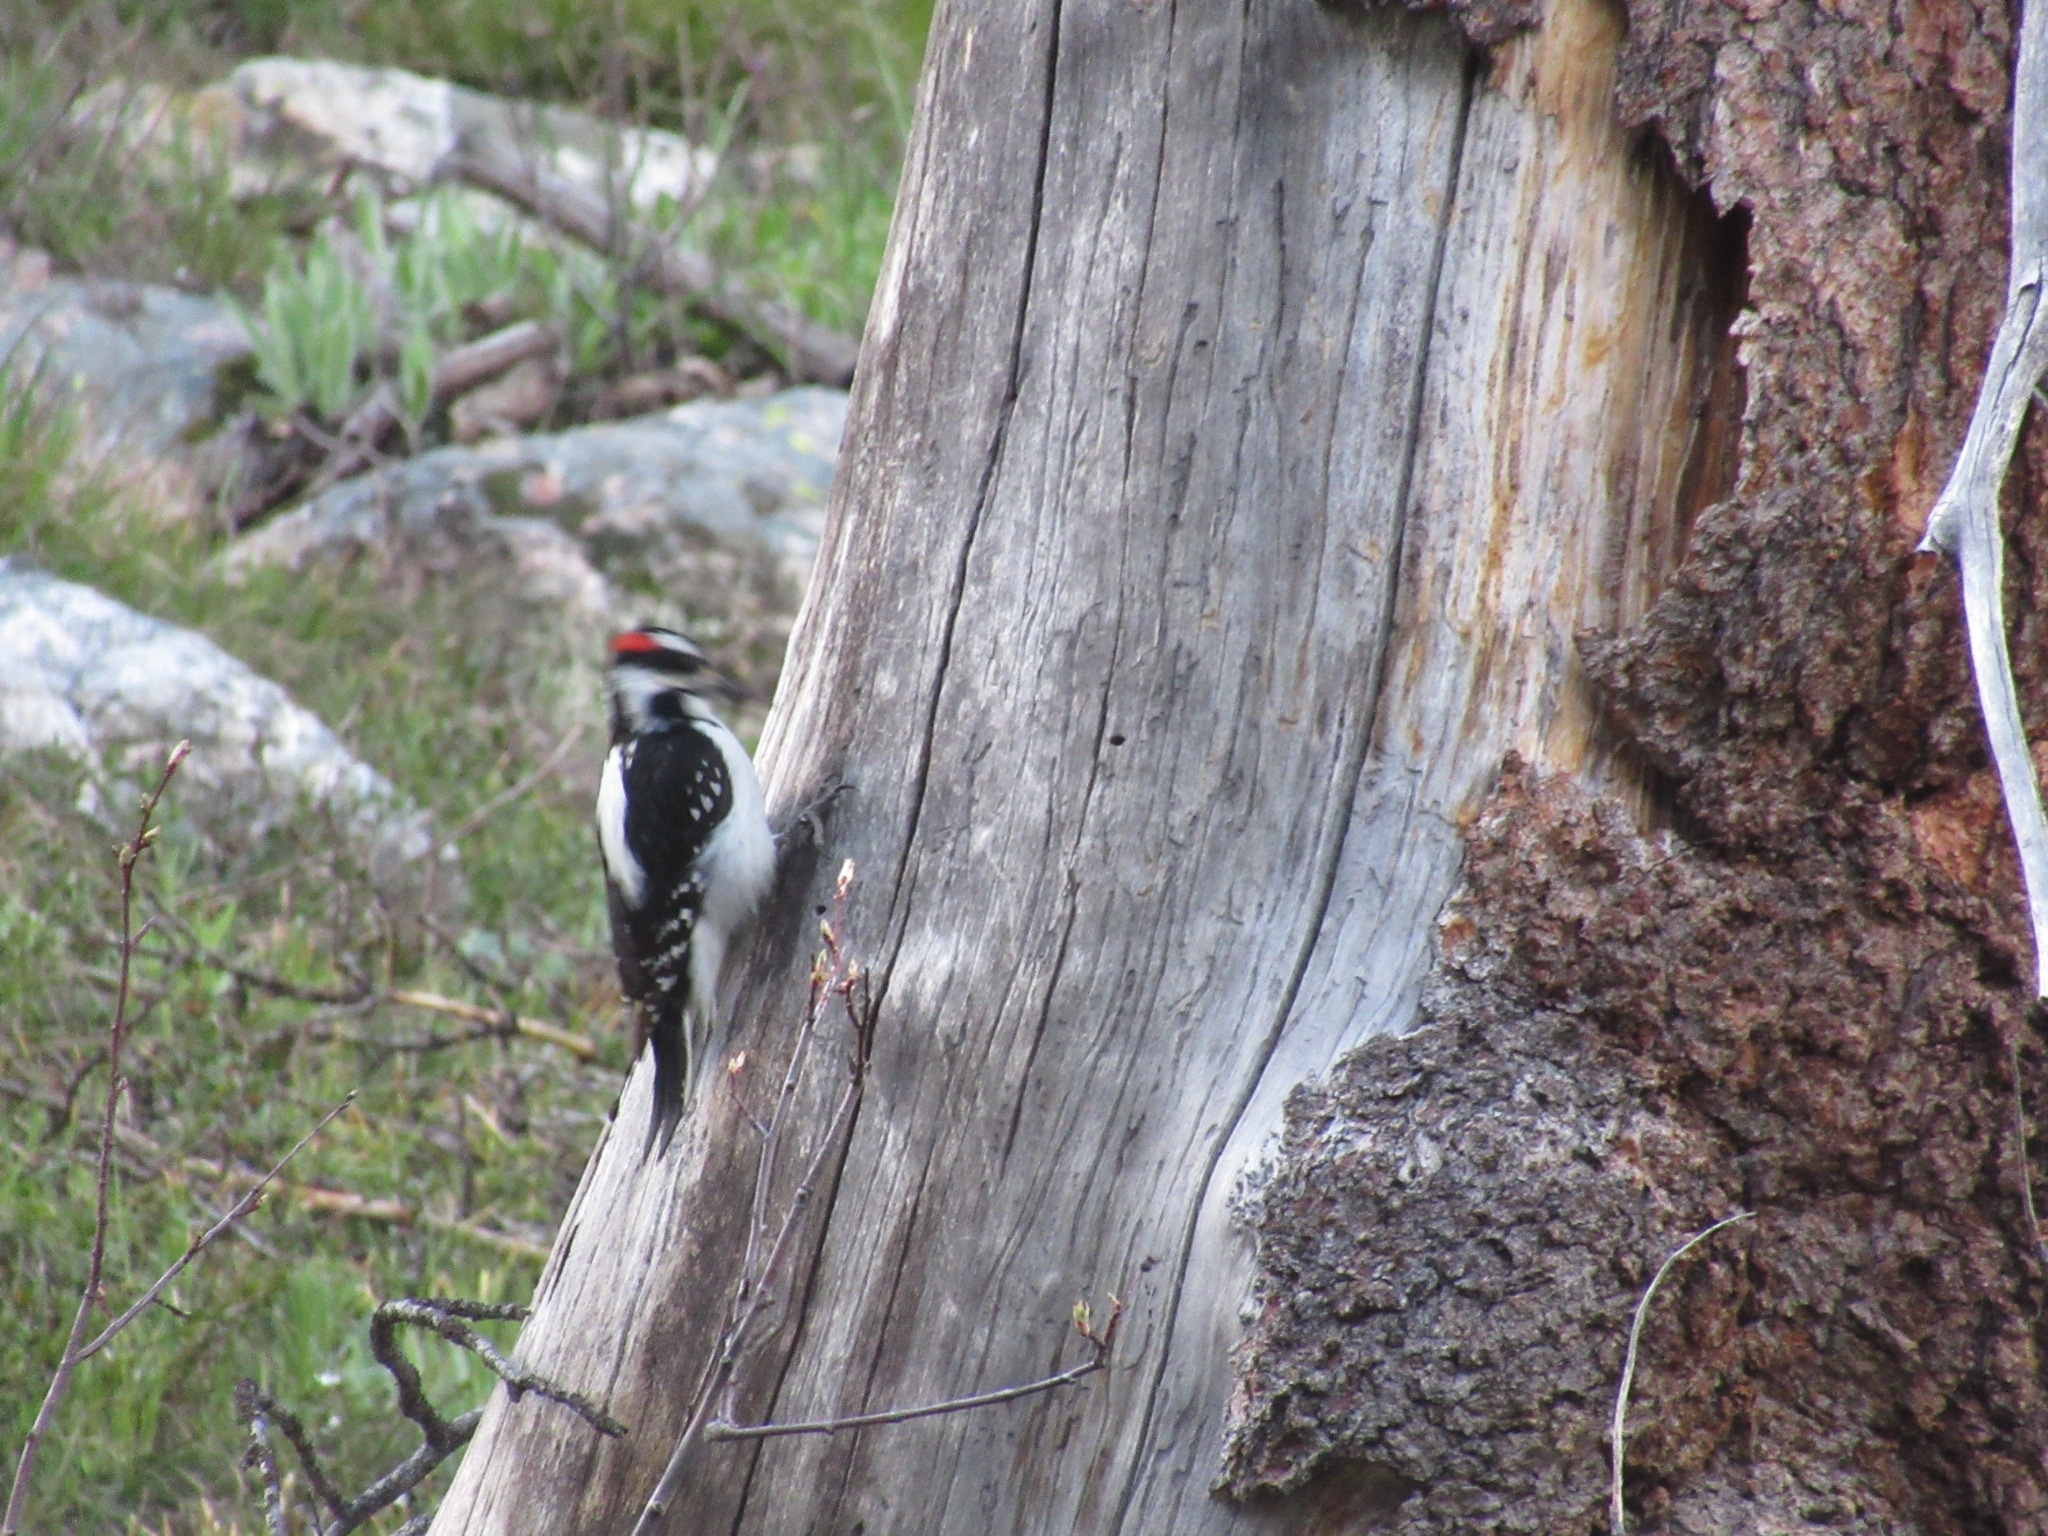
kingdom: Animalia
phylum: Chordata
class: Aves
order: Piciformes
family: Picidae
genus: Leuconotopicus
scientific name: Leuconotopicus villosus
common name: Hairy woodpecker
